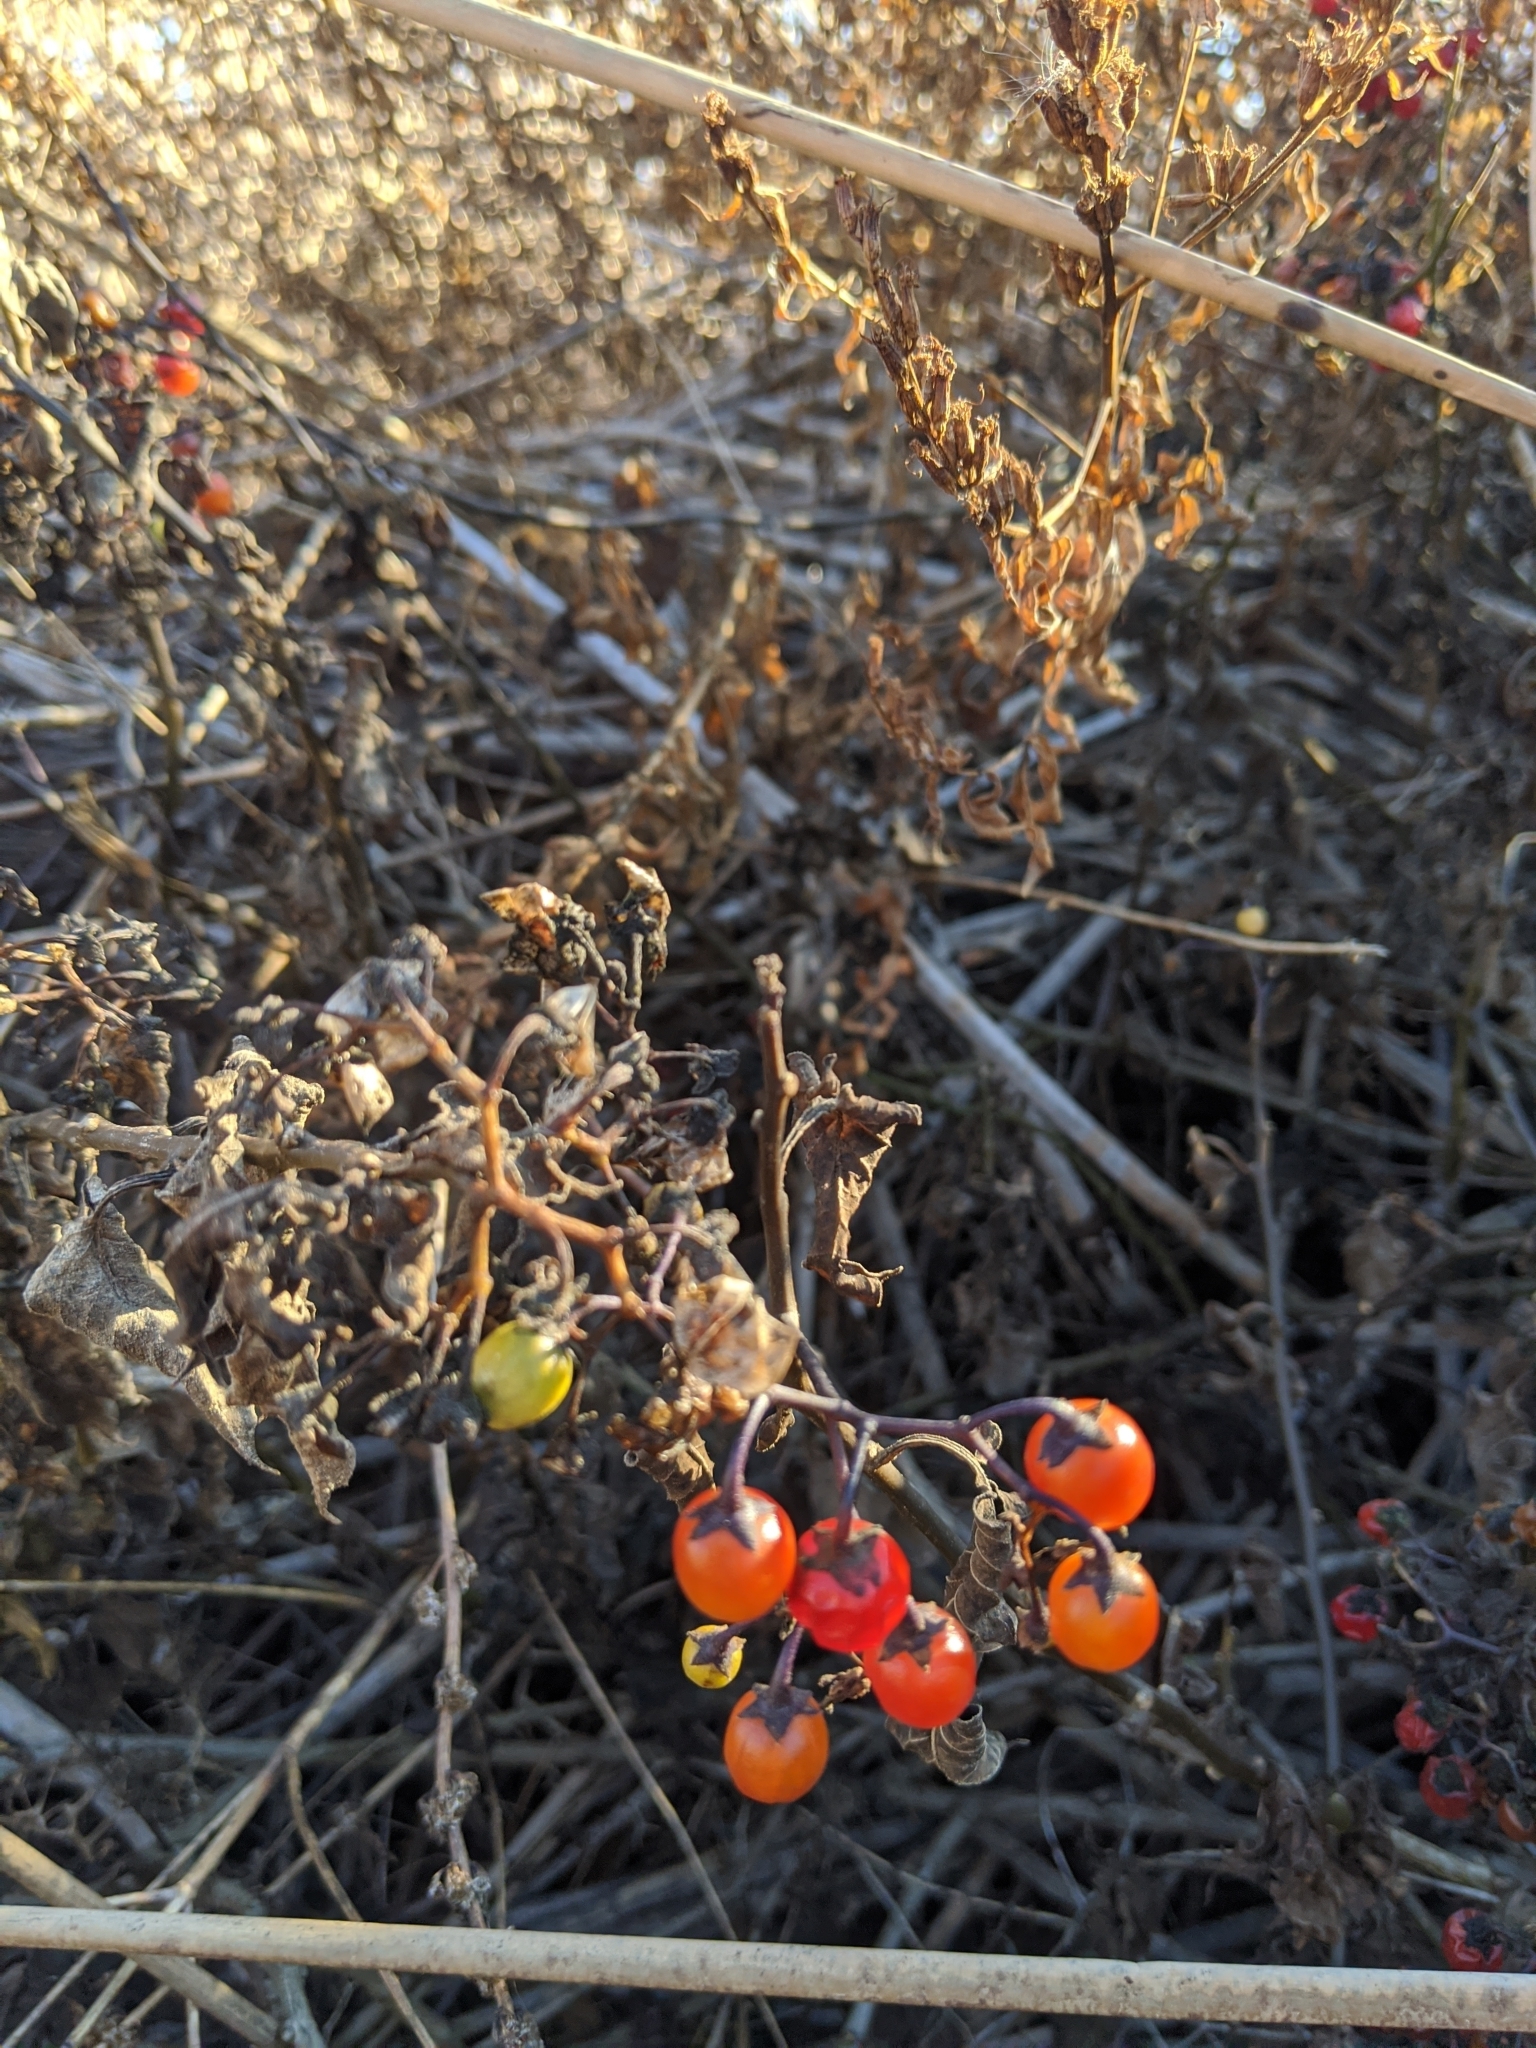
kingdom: Plantae
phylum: Tracheophyta
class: Magnoliopsida
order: Solanales
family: Solanaceae
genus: Solanum
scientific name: Solanum dulcamara
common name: Climbing nightshade
